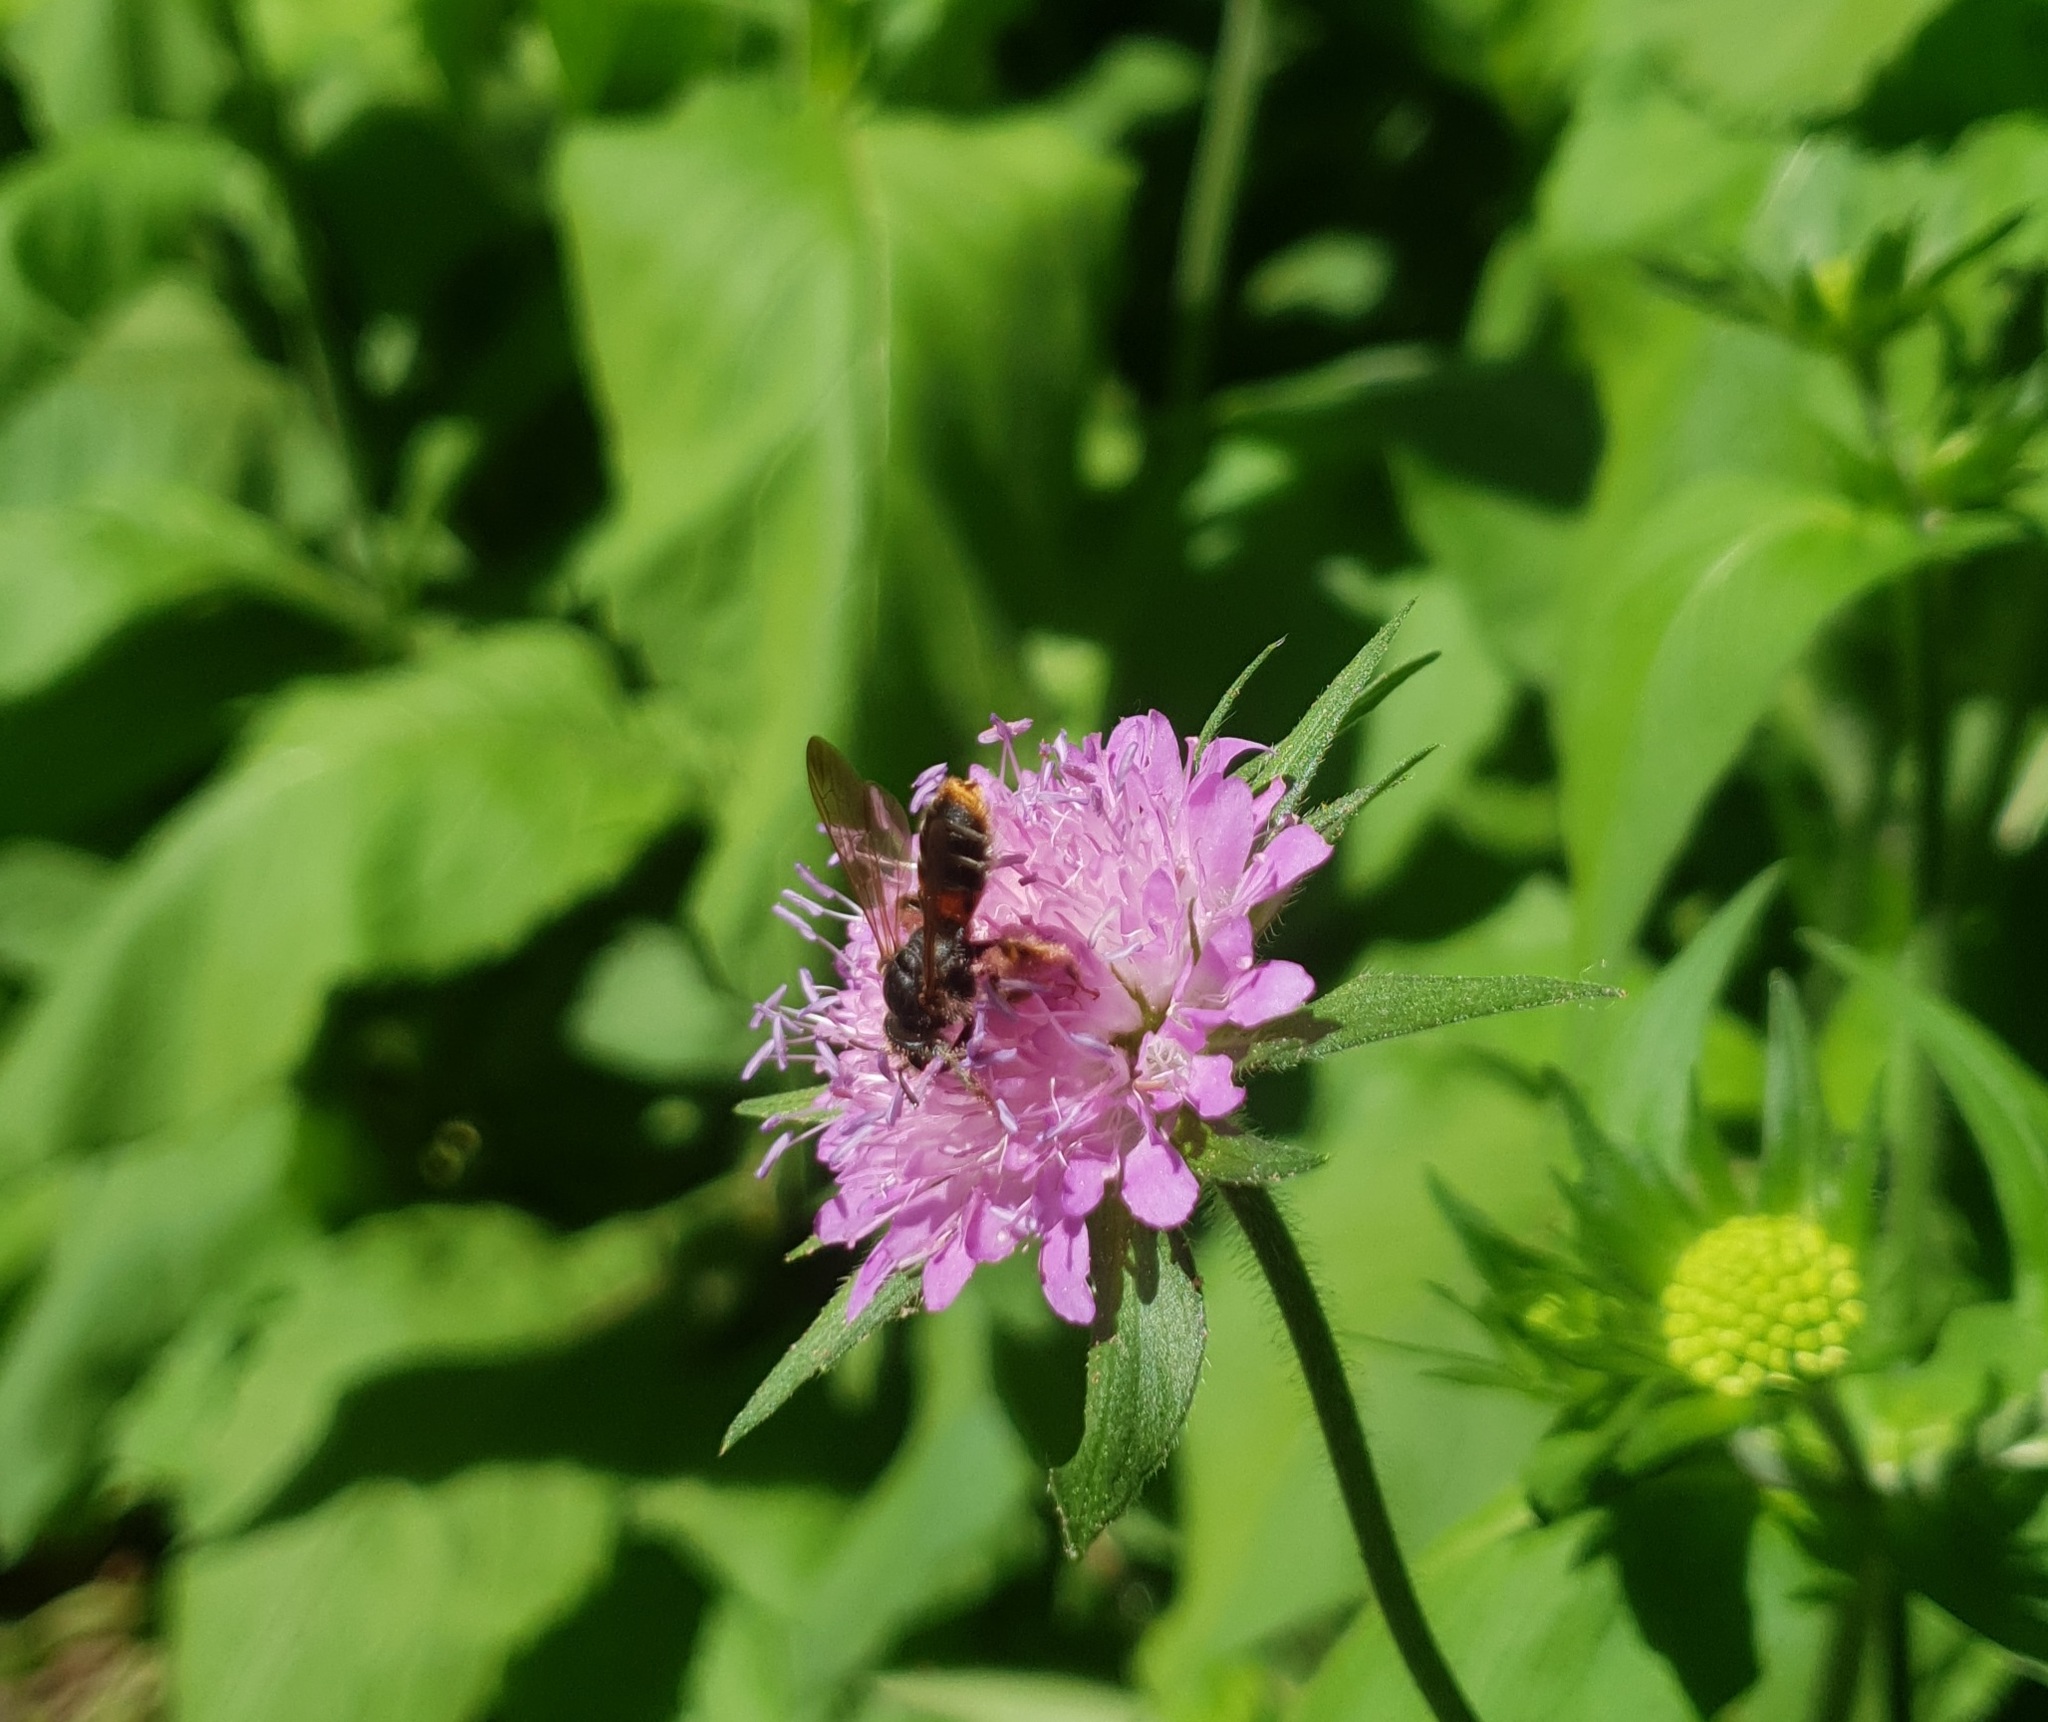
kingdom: Animalia
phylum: Arthropoda
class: Insecta
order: Hymenoptera
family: Andrenidae
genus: Andrena
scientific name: Andrena hattorfiana
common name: Large scabious mining bee
